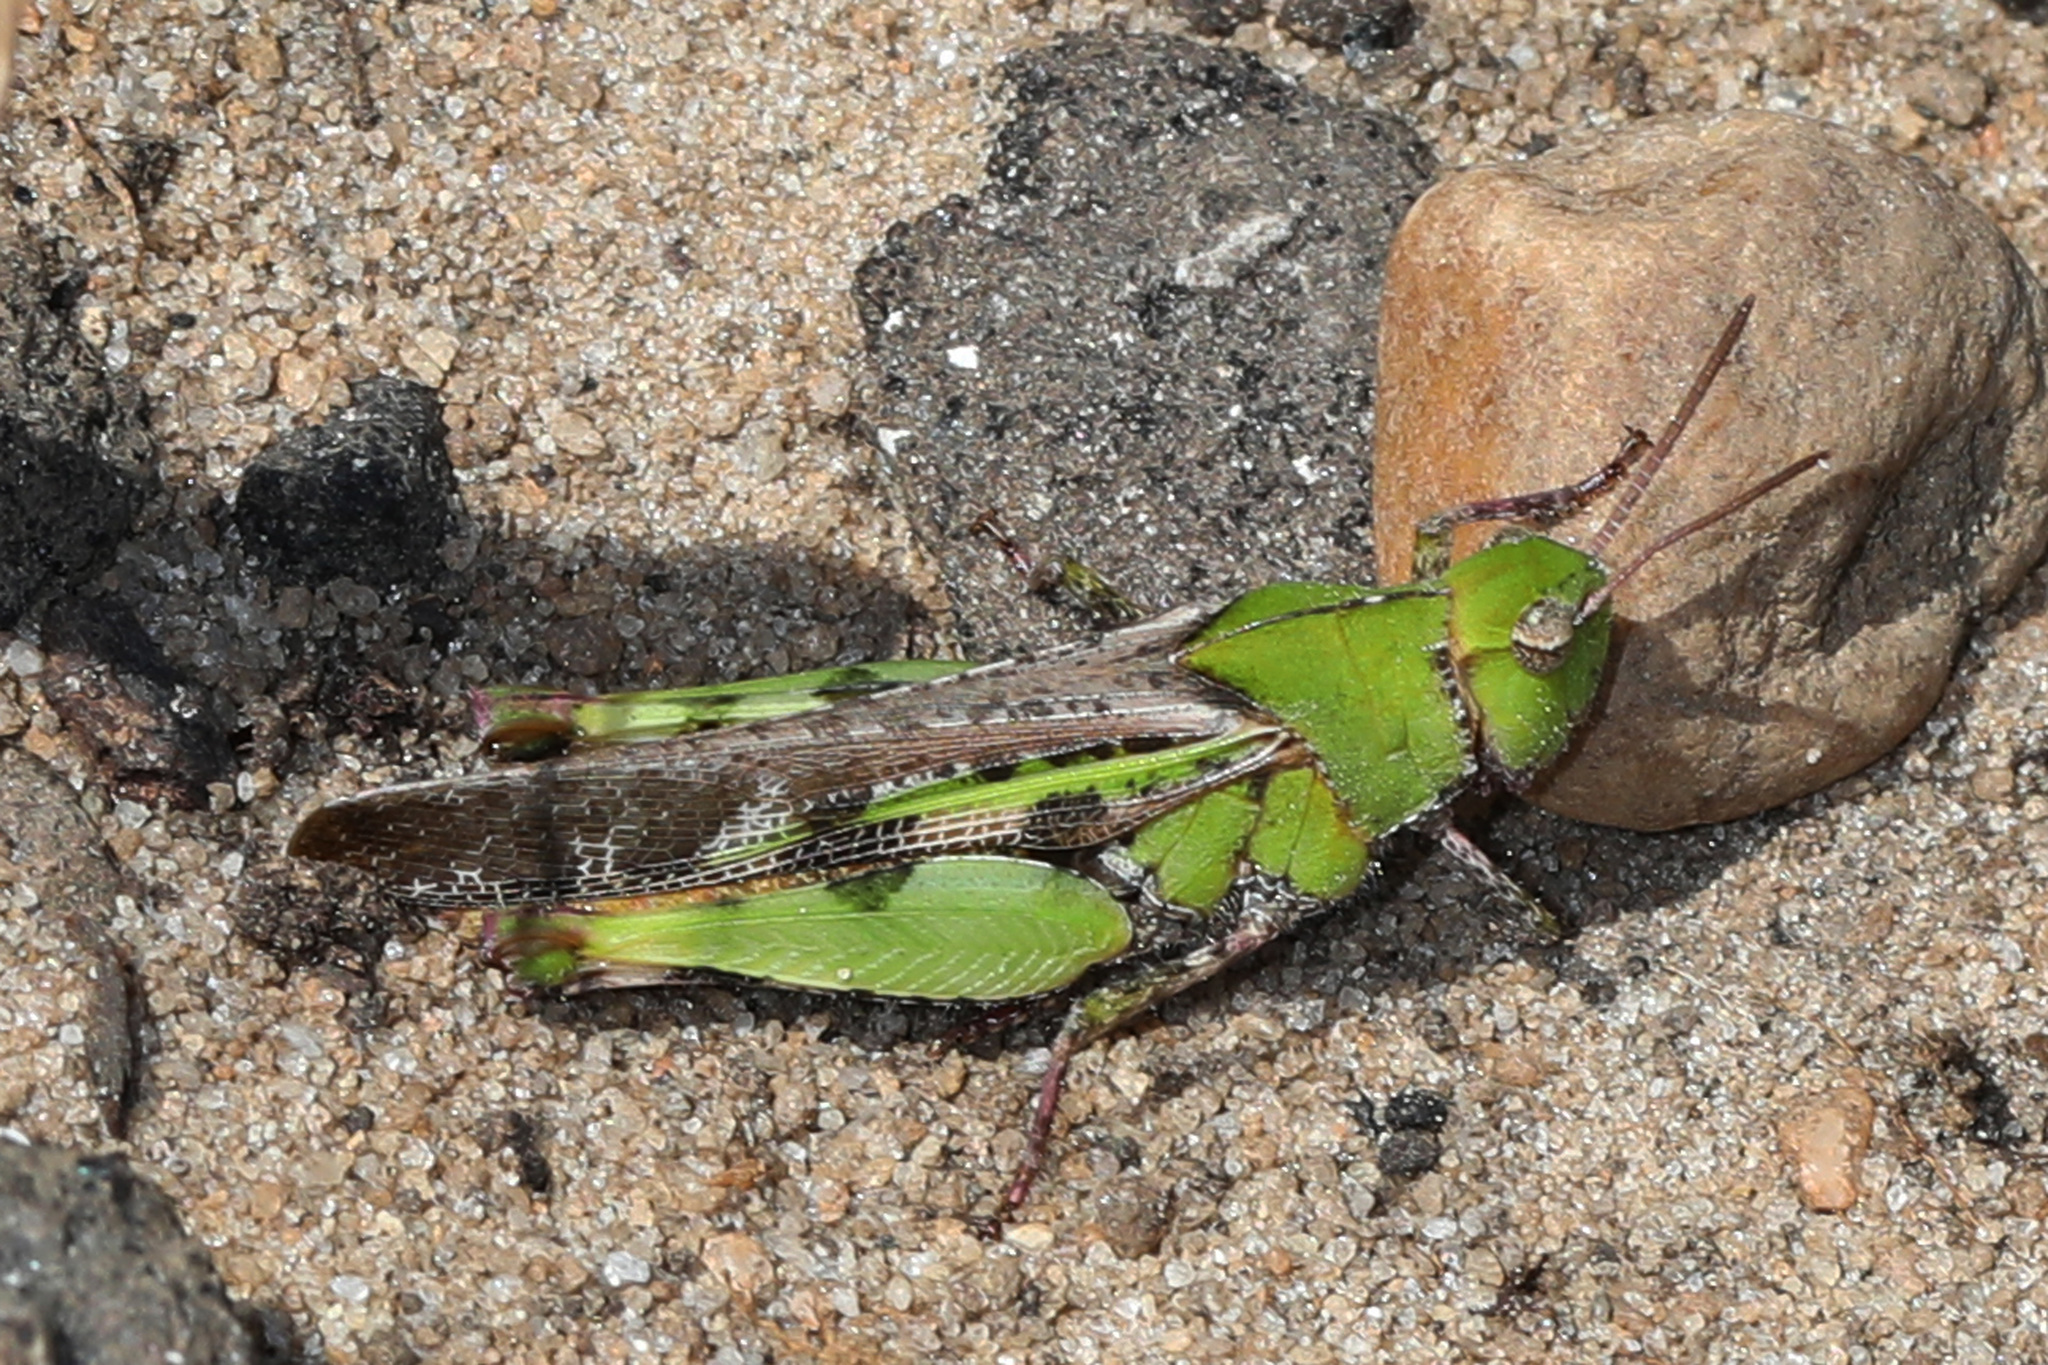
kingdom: Animalia
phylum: Arthropoda
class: Insecta
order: Orthoptera
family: Acrididae
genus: Chortophaga
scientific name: Chortophaga australior
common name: Southern green-striped grasshopper
